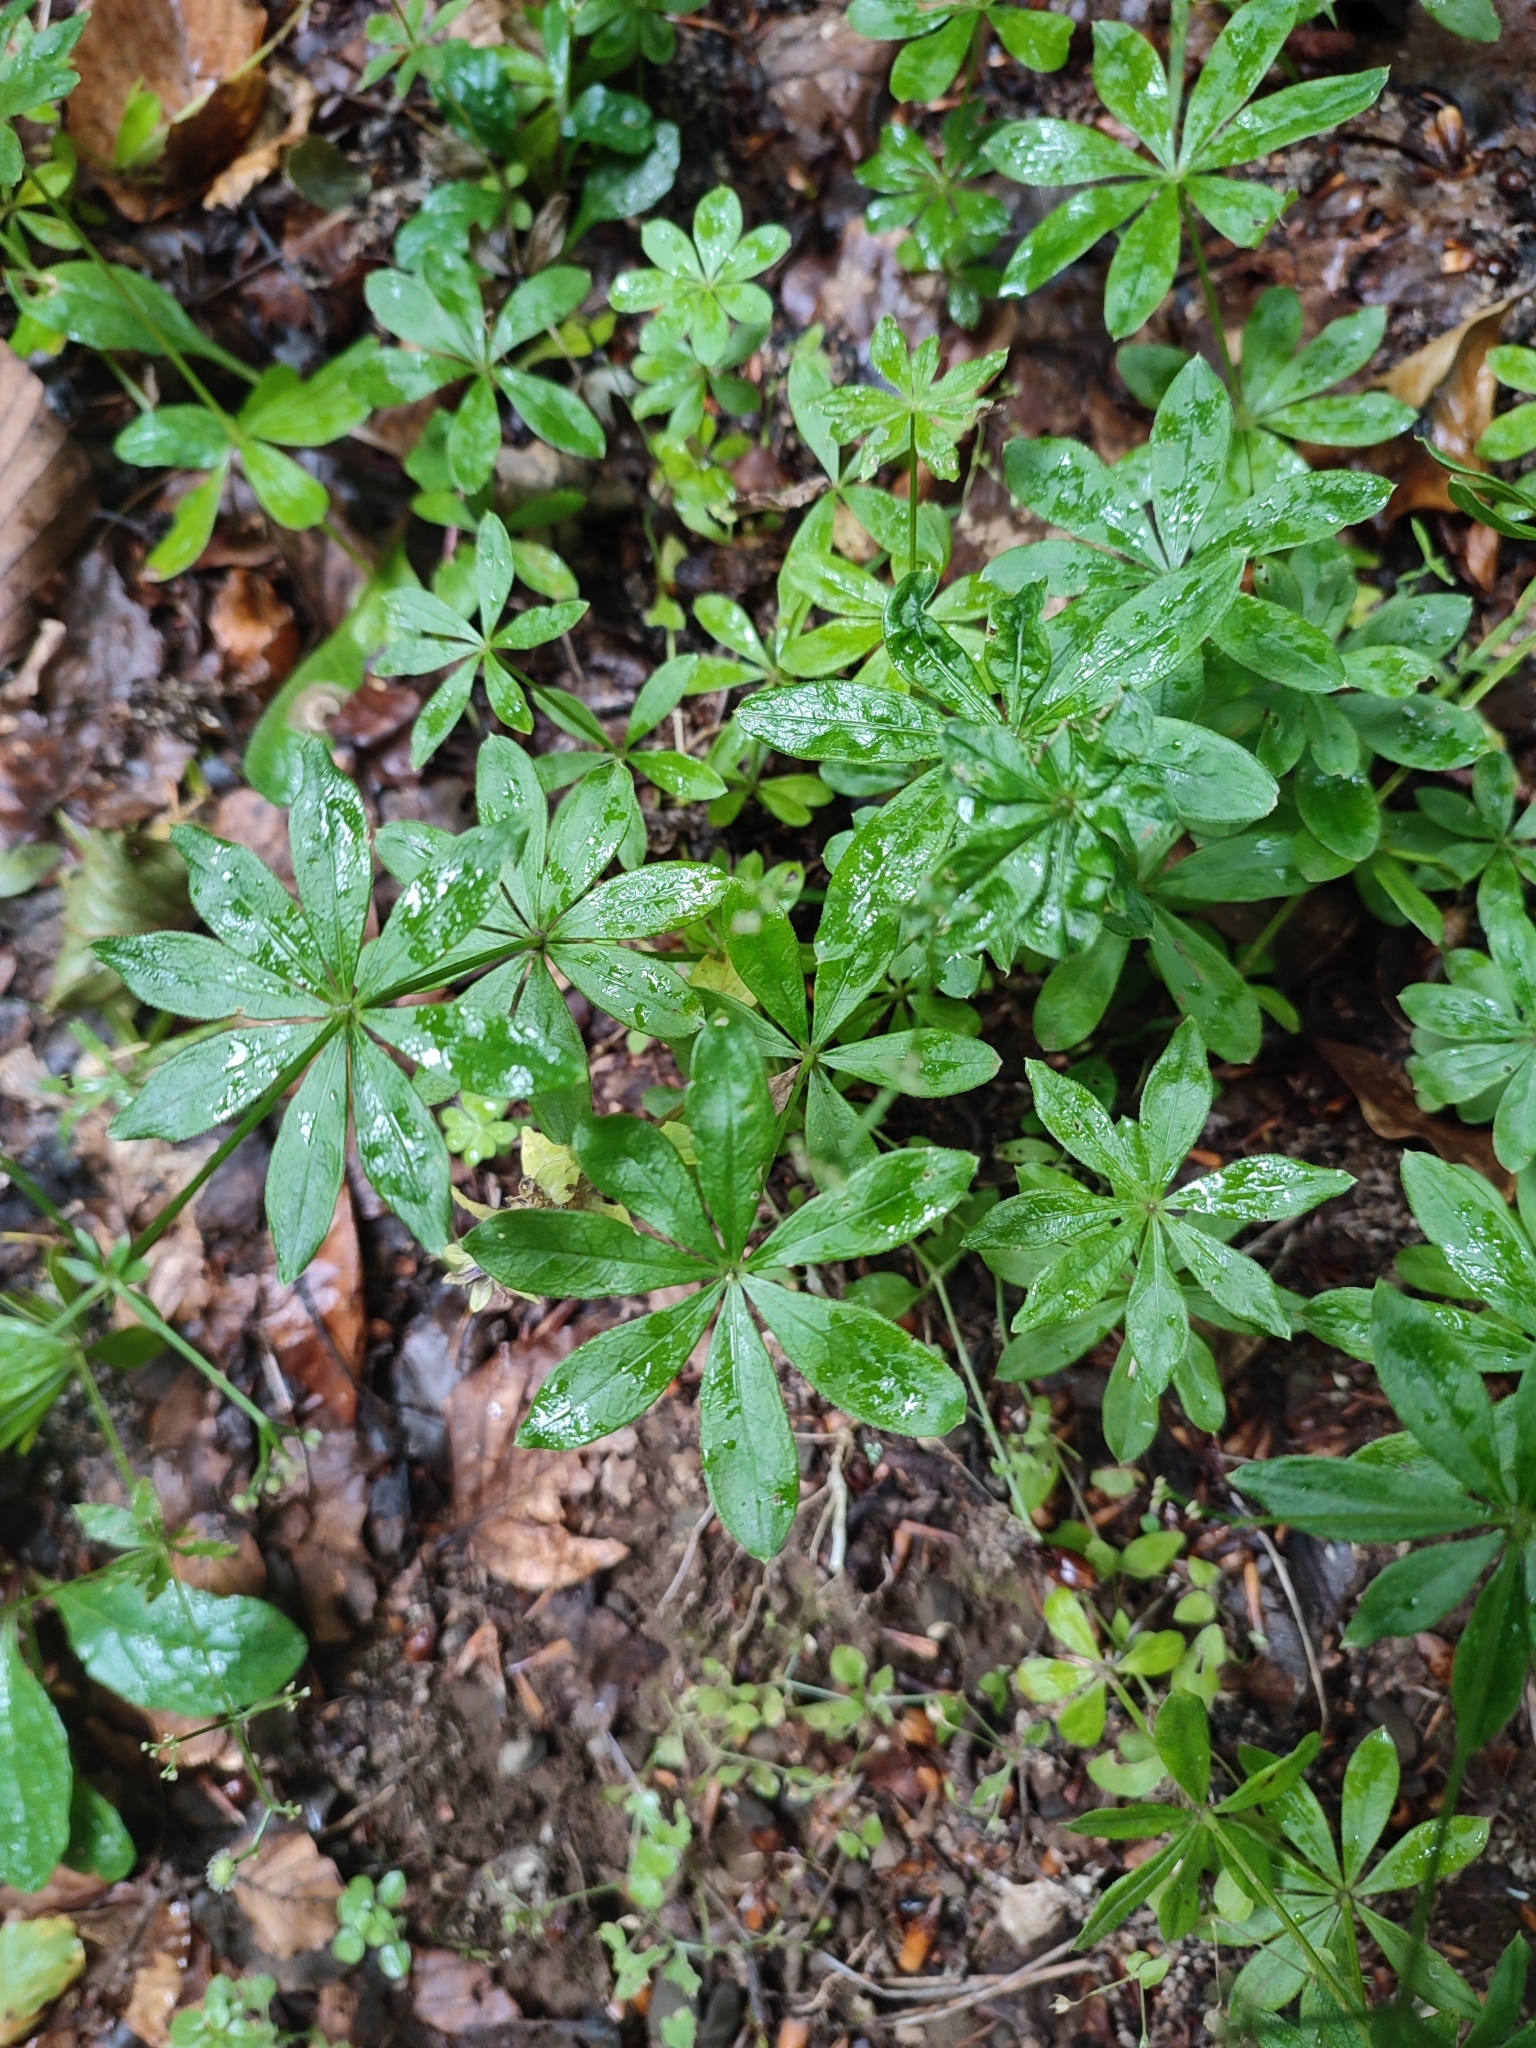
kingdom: Plantae
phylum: Tracheophyta
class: Magnoliopsida
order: Gentianales
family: Rubiaceae
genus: Galium
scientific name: Galium odoratum
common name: Sweet woodruff
